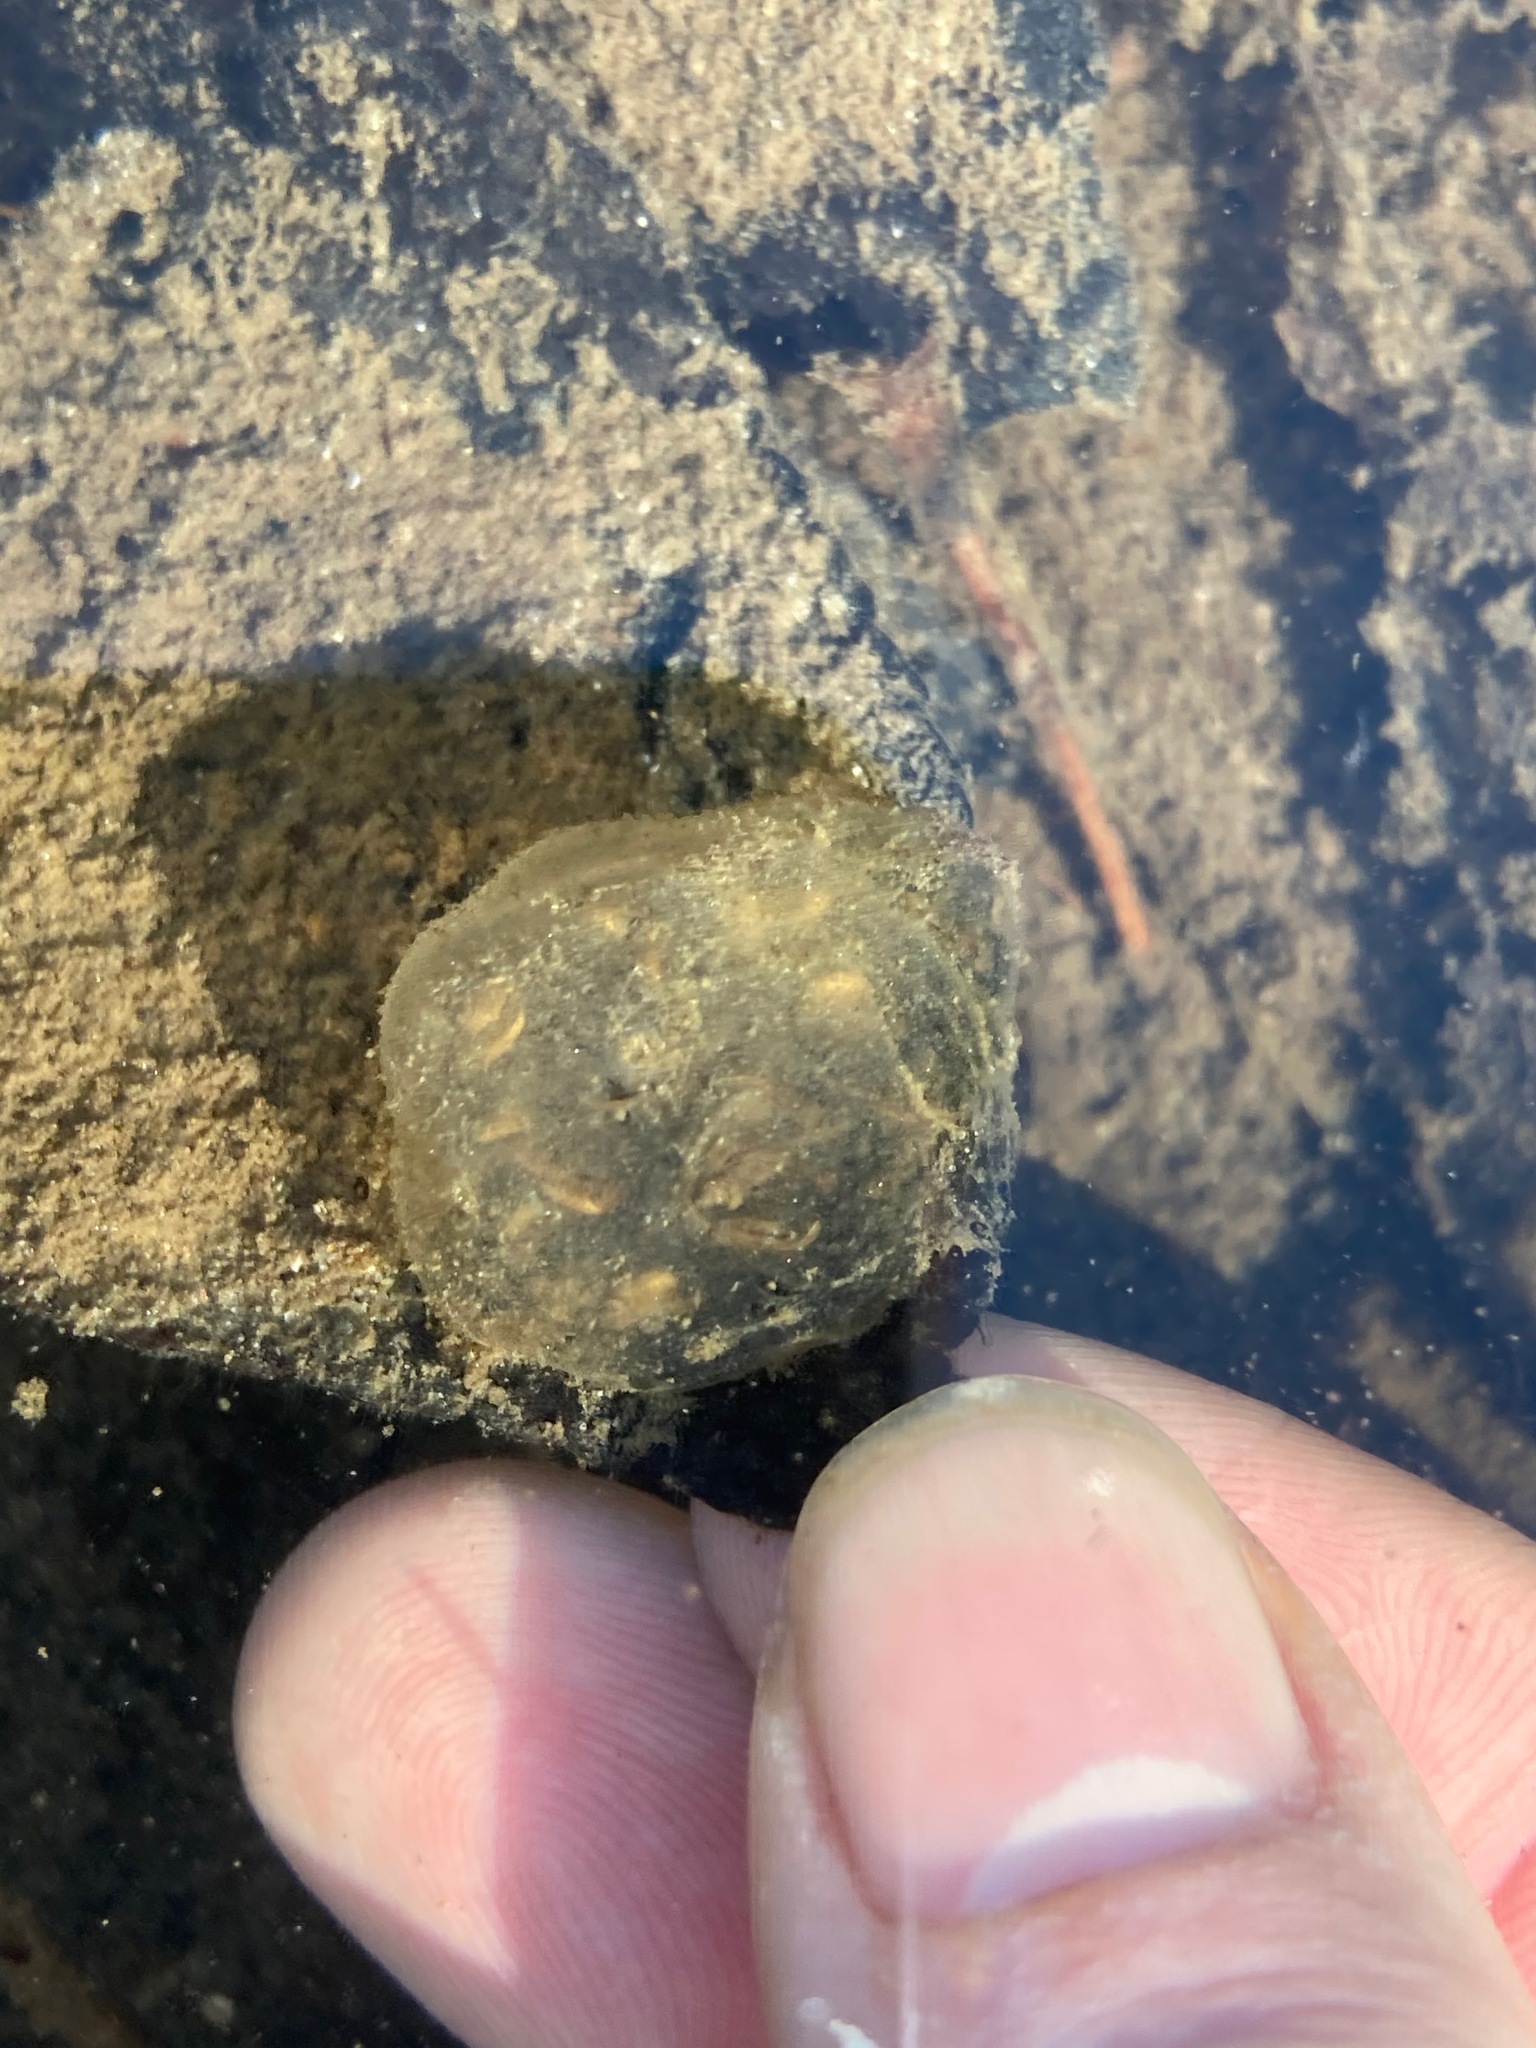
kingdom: Animalia
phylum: Chordata
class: Amphibia
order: Caudata
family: Ambystomatidae
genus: Ambystoma
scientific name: Ambystoma macrodactylum
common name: Long-toed salamander
